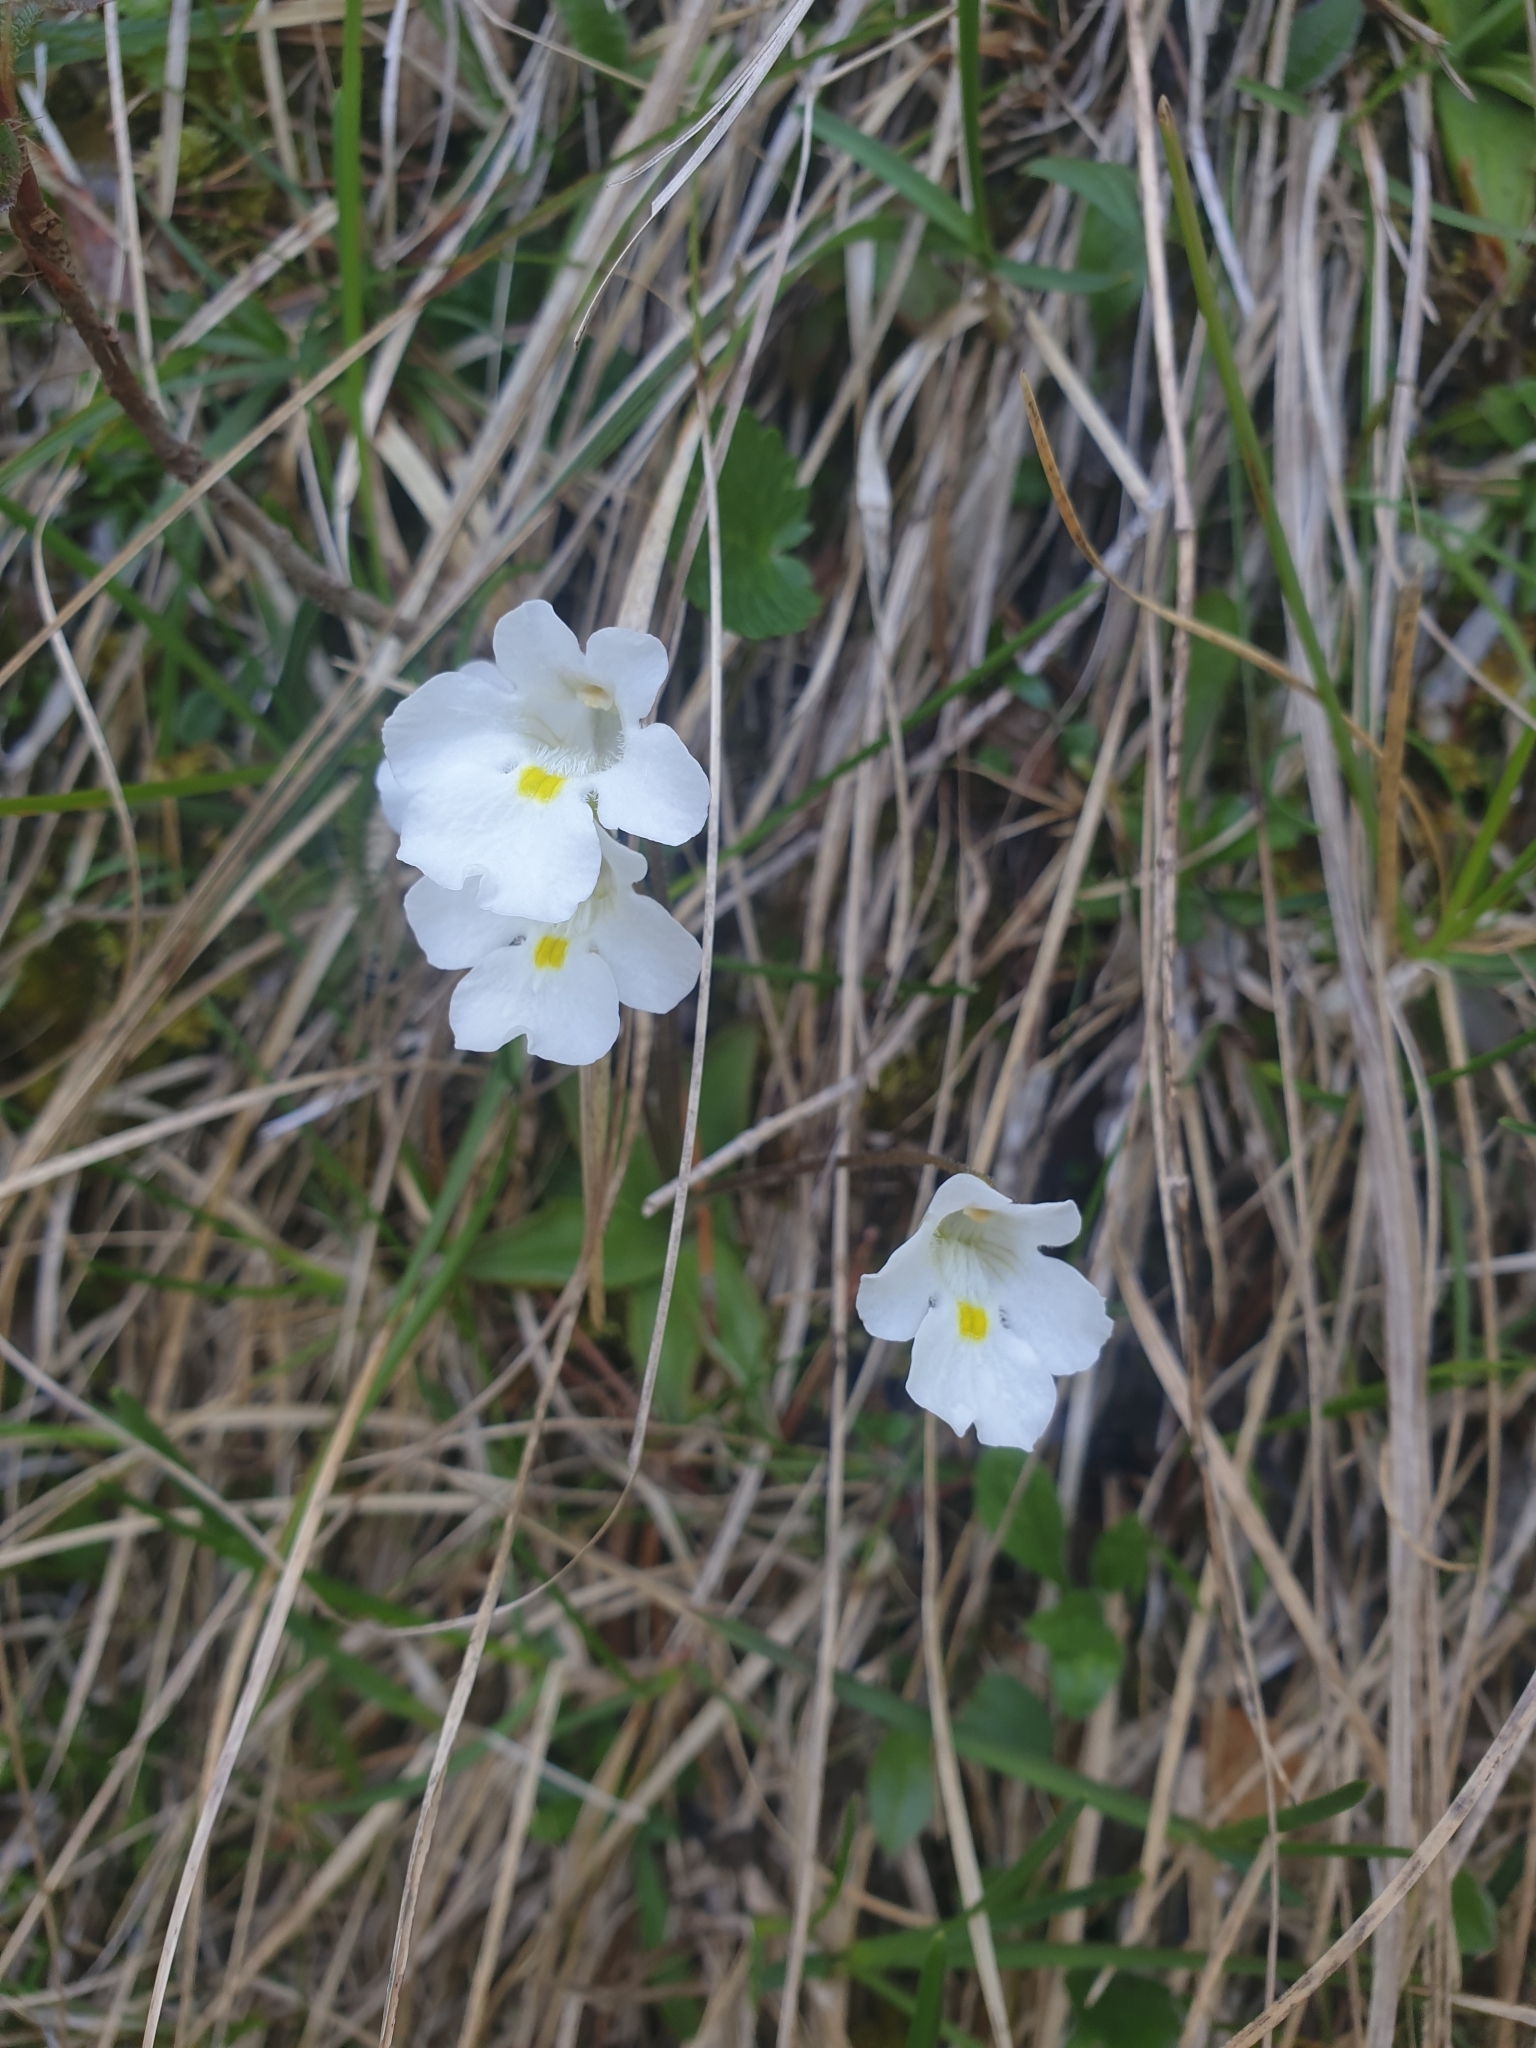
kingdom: Plantae
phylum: Tracheophyta
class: Magnoliopsida
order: Lamiales
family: Lentibulariaceae
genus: Pinguicula
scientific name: Pinguicula alpina
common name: Alpine butterwort
